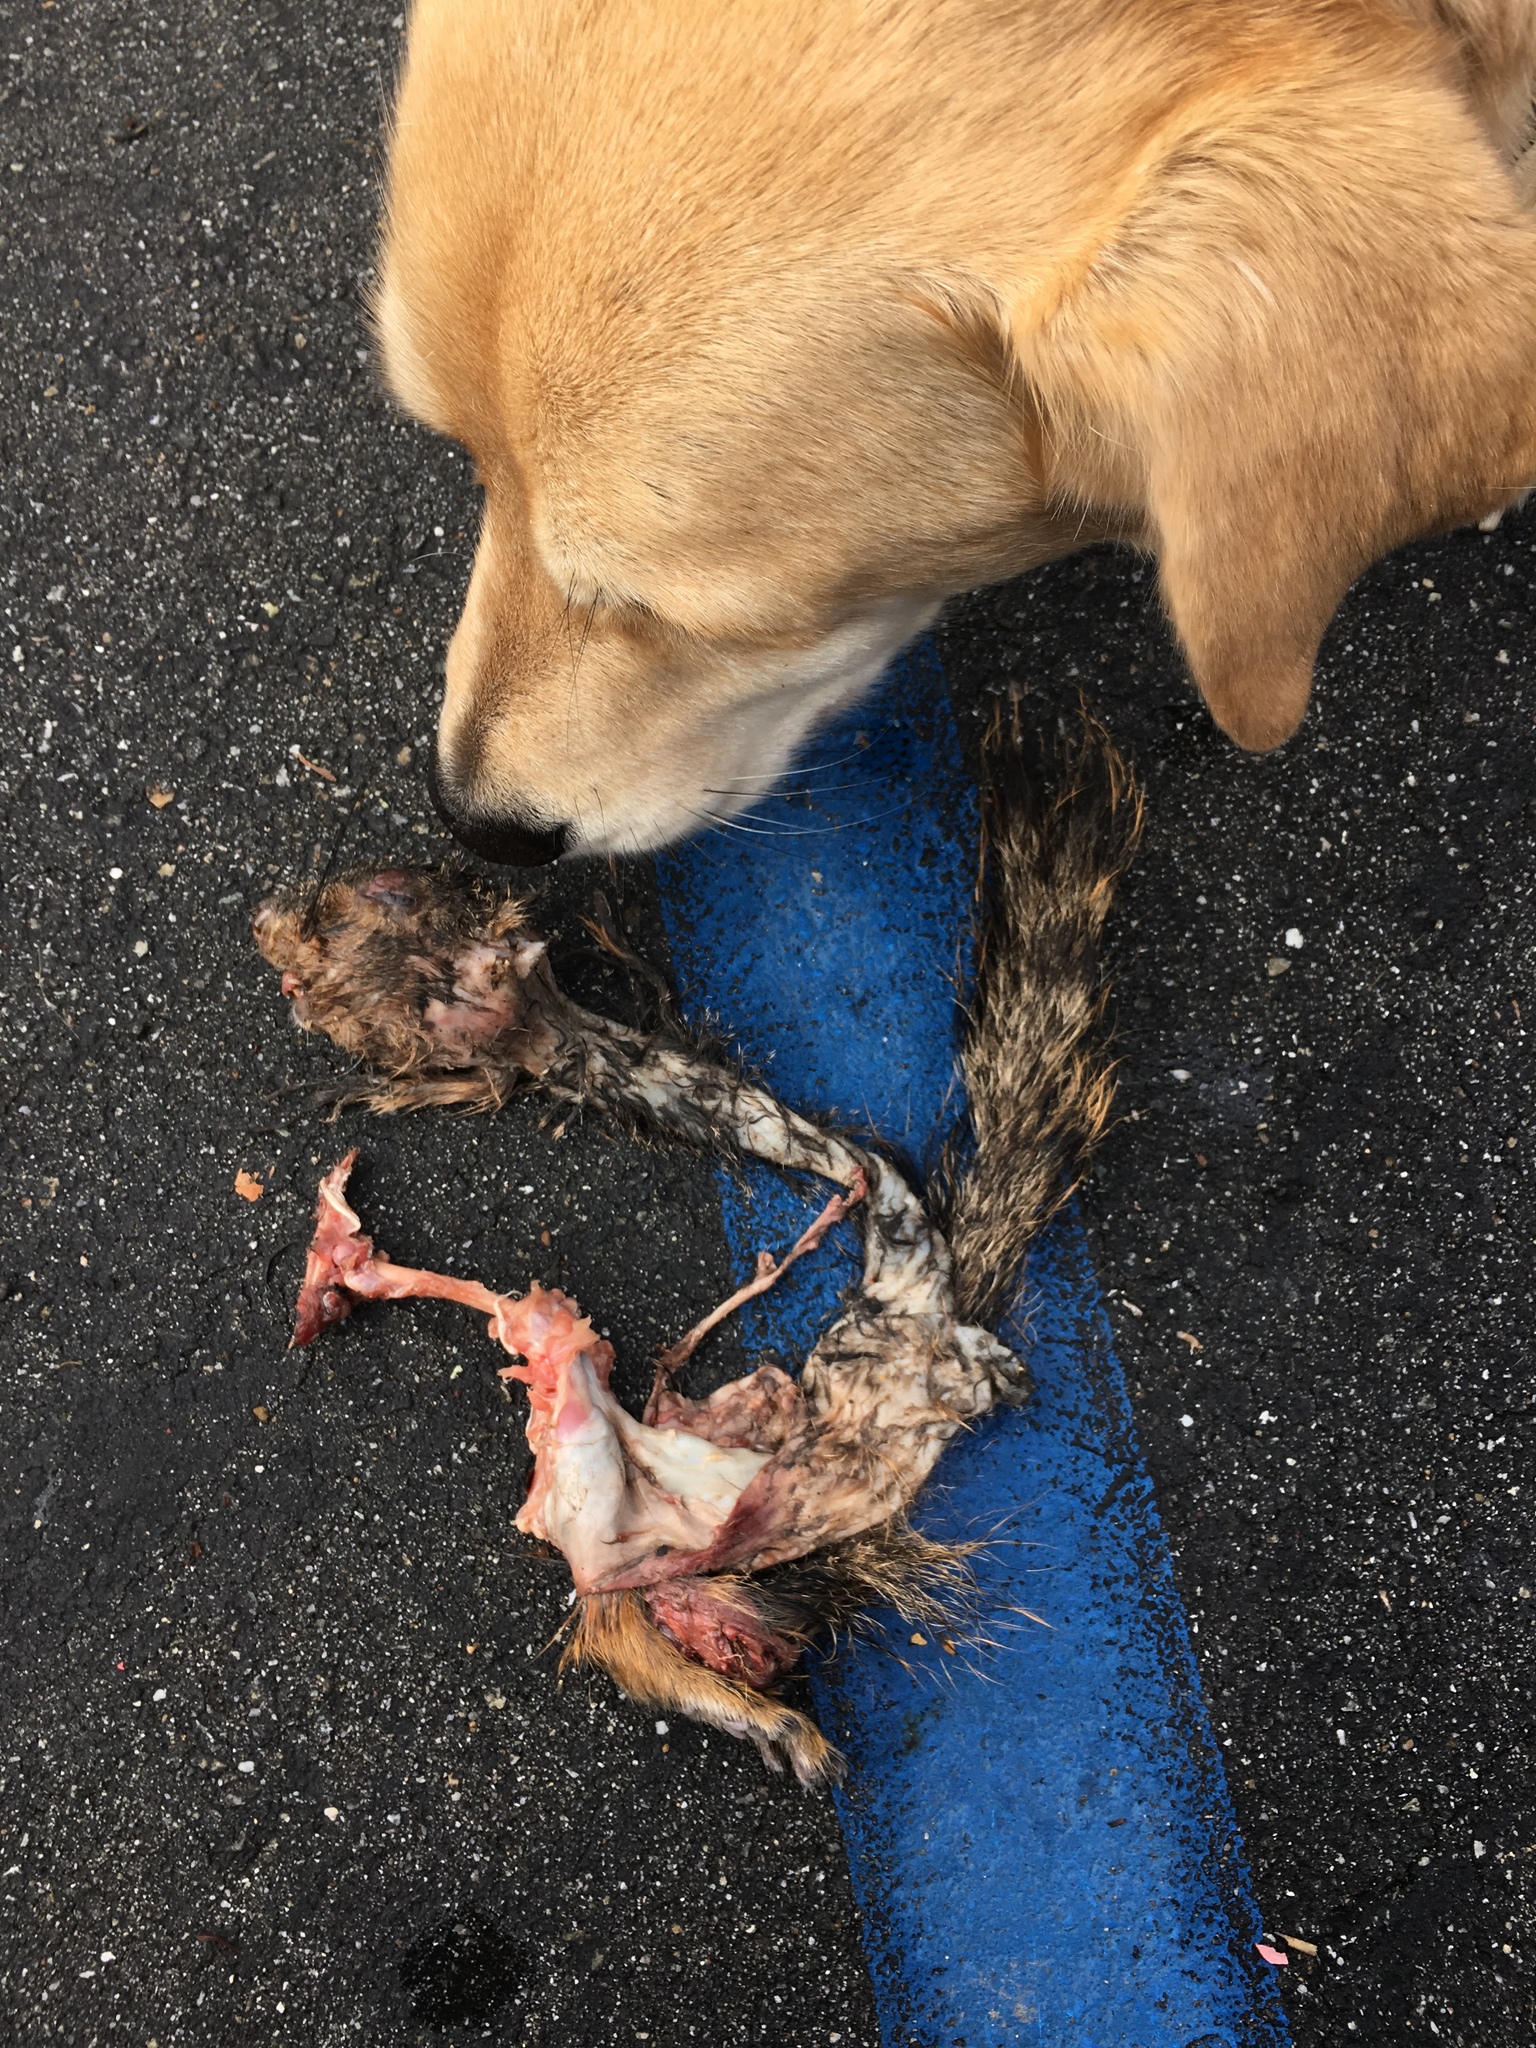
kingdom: Animalia
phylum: Chordata
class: Mammalia
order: Rodentia
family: Sciuridae
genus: Sciurus
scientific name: Sciurus niger
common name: Fox squirrel
